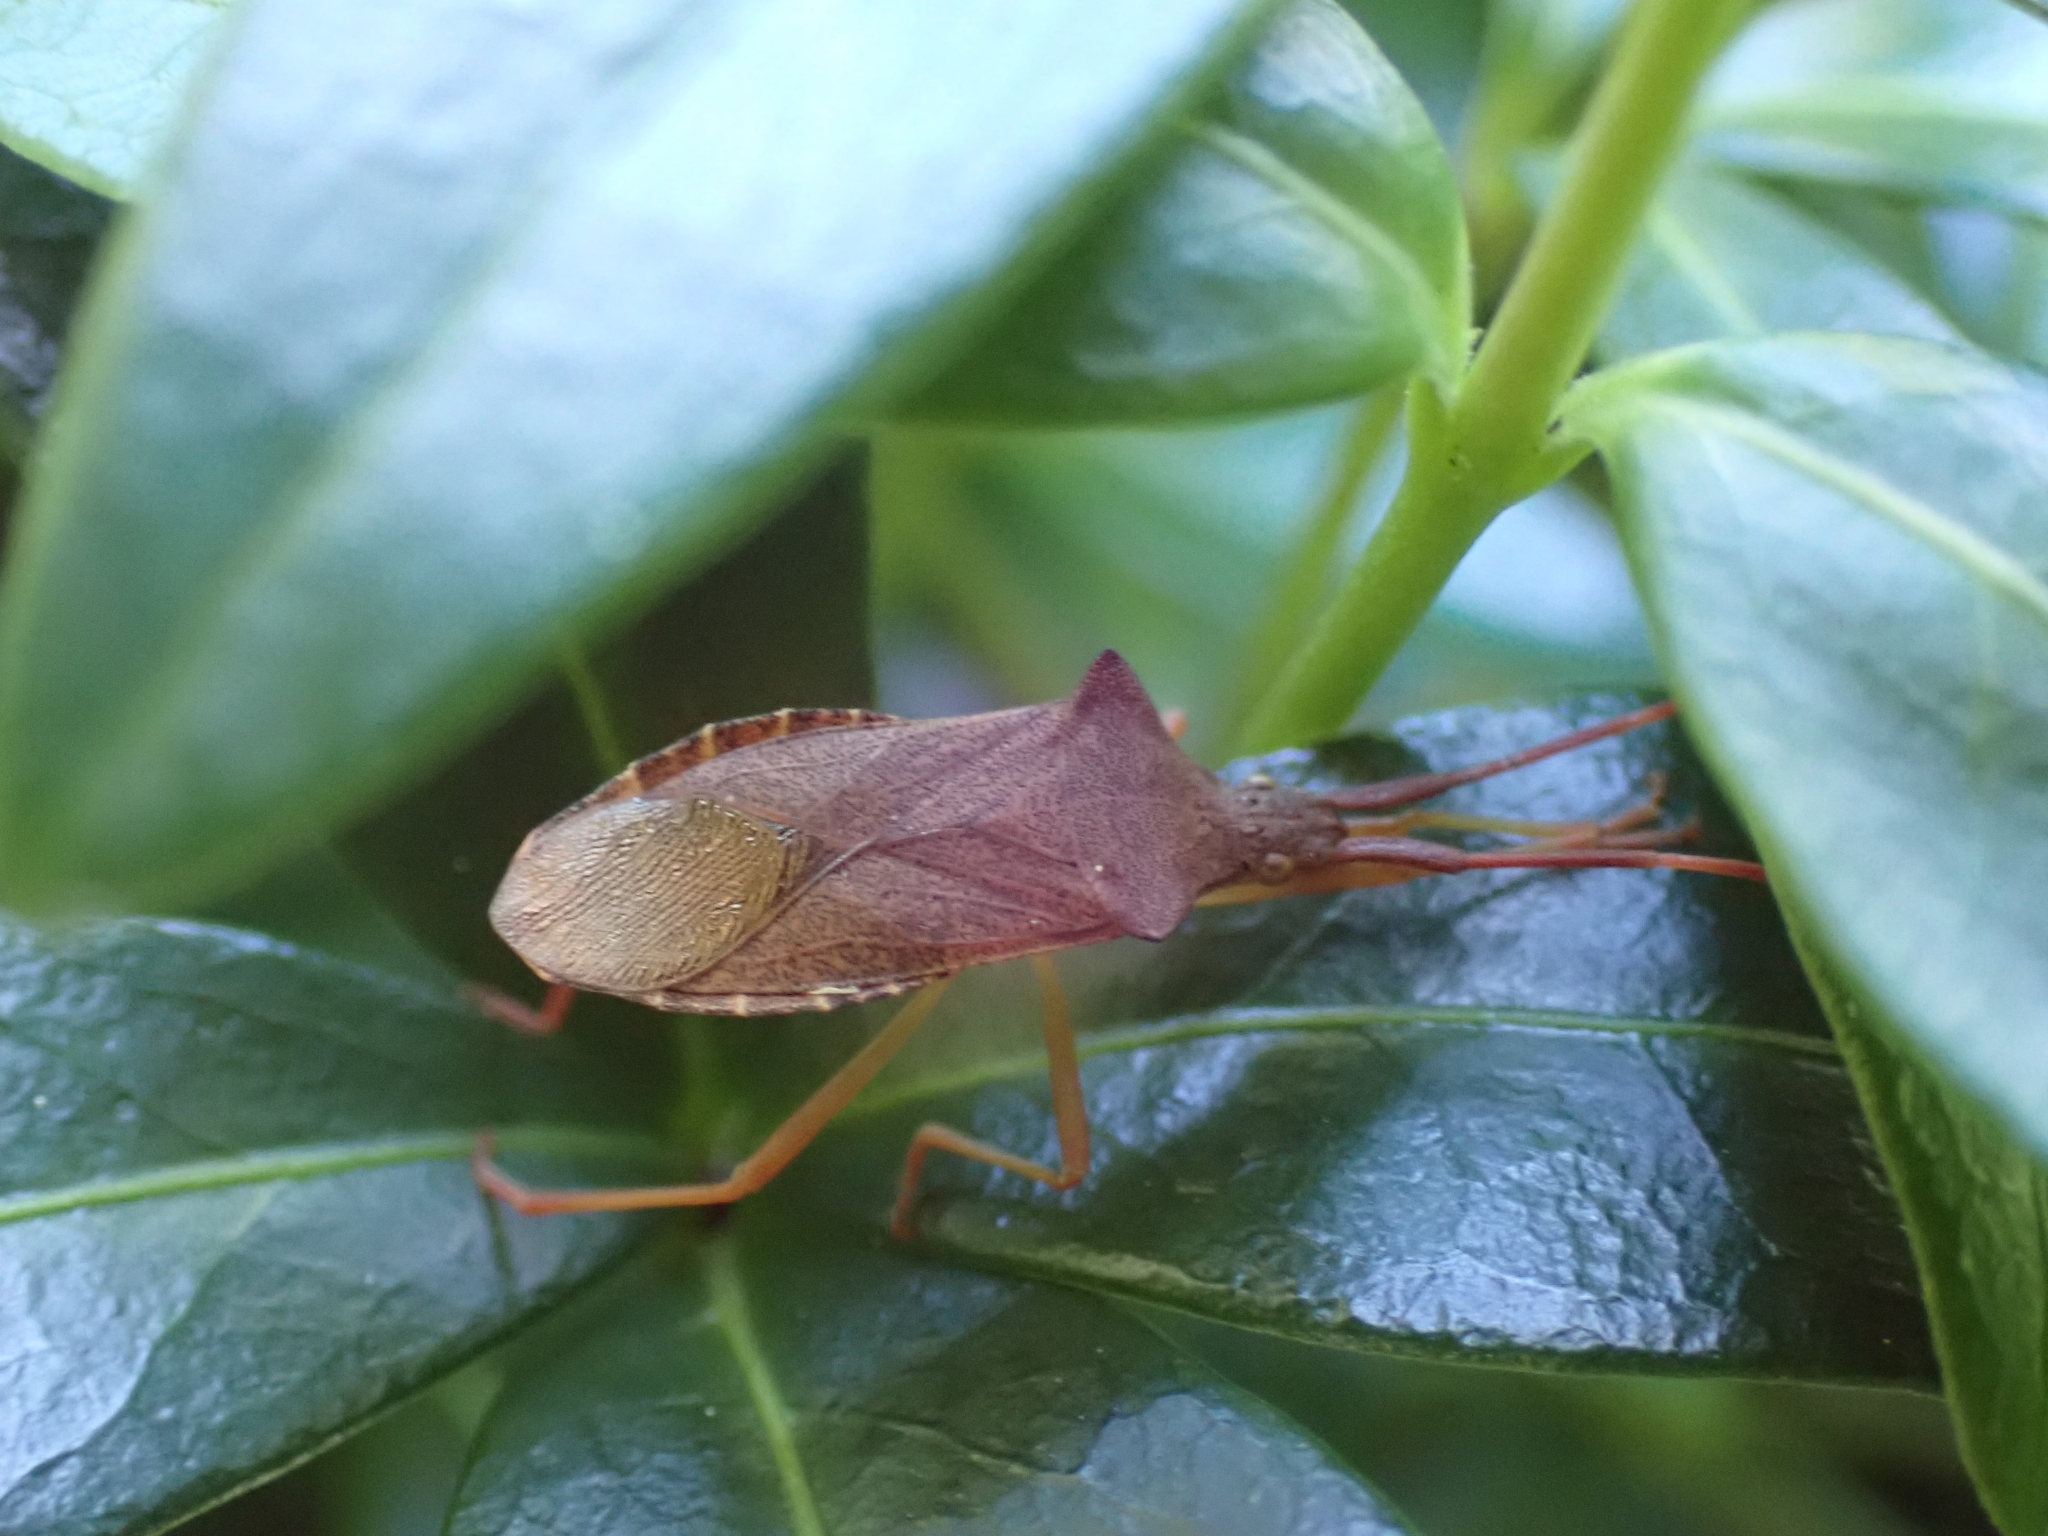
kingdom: Animalia
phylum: Arthropoda
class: Insecta
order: Hemiptera
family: Coreidae
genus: Gonocerus
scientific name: Gonocerus acuteangulatus
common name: Box bug
